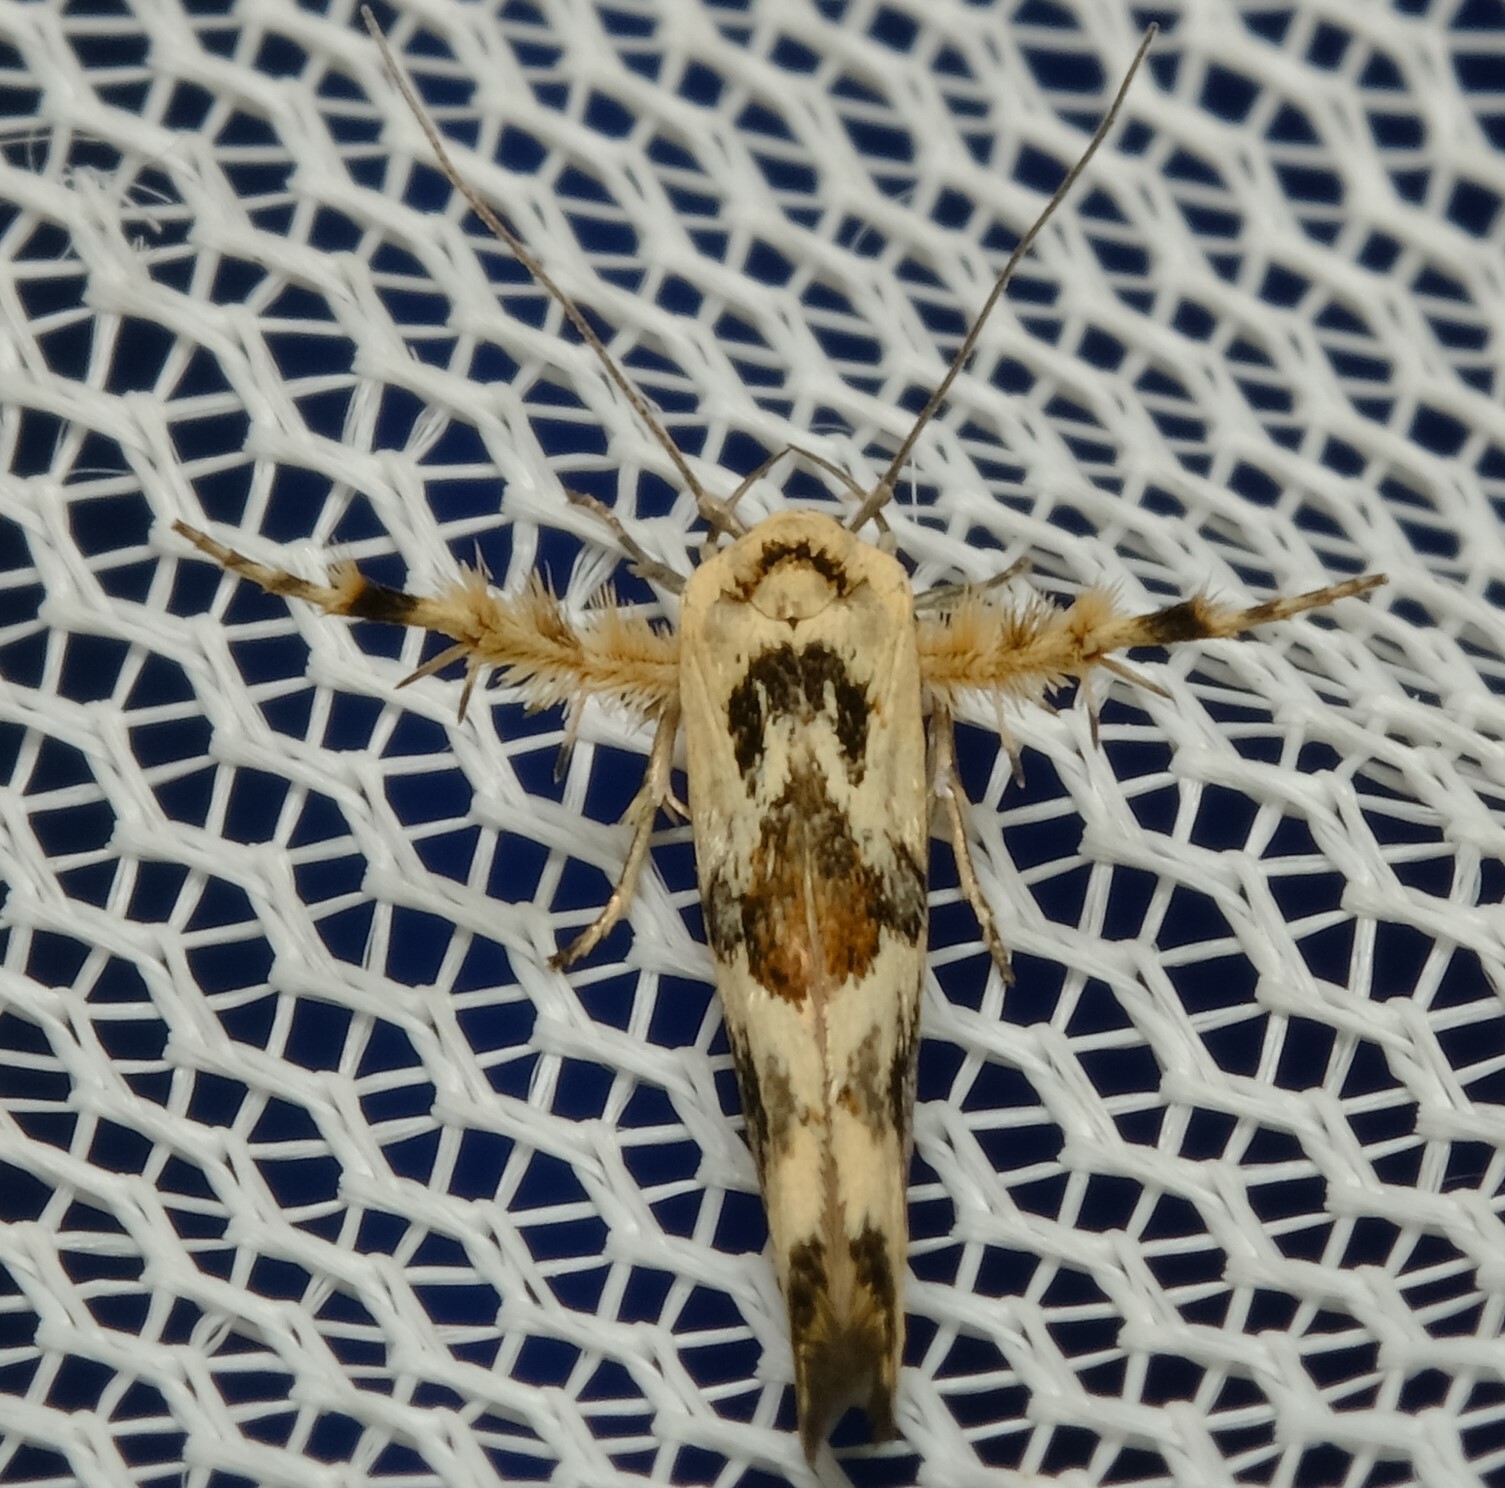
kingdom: Animalia
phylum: Arthropoda
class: Insecta
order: Lepidoptera
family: Stathmopodidae
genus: Stathmopoda
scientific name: Stathmopoda melanochra
